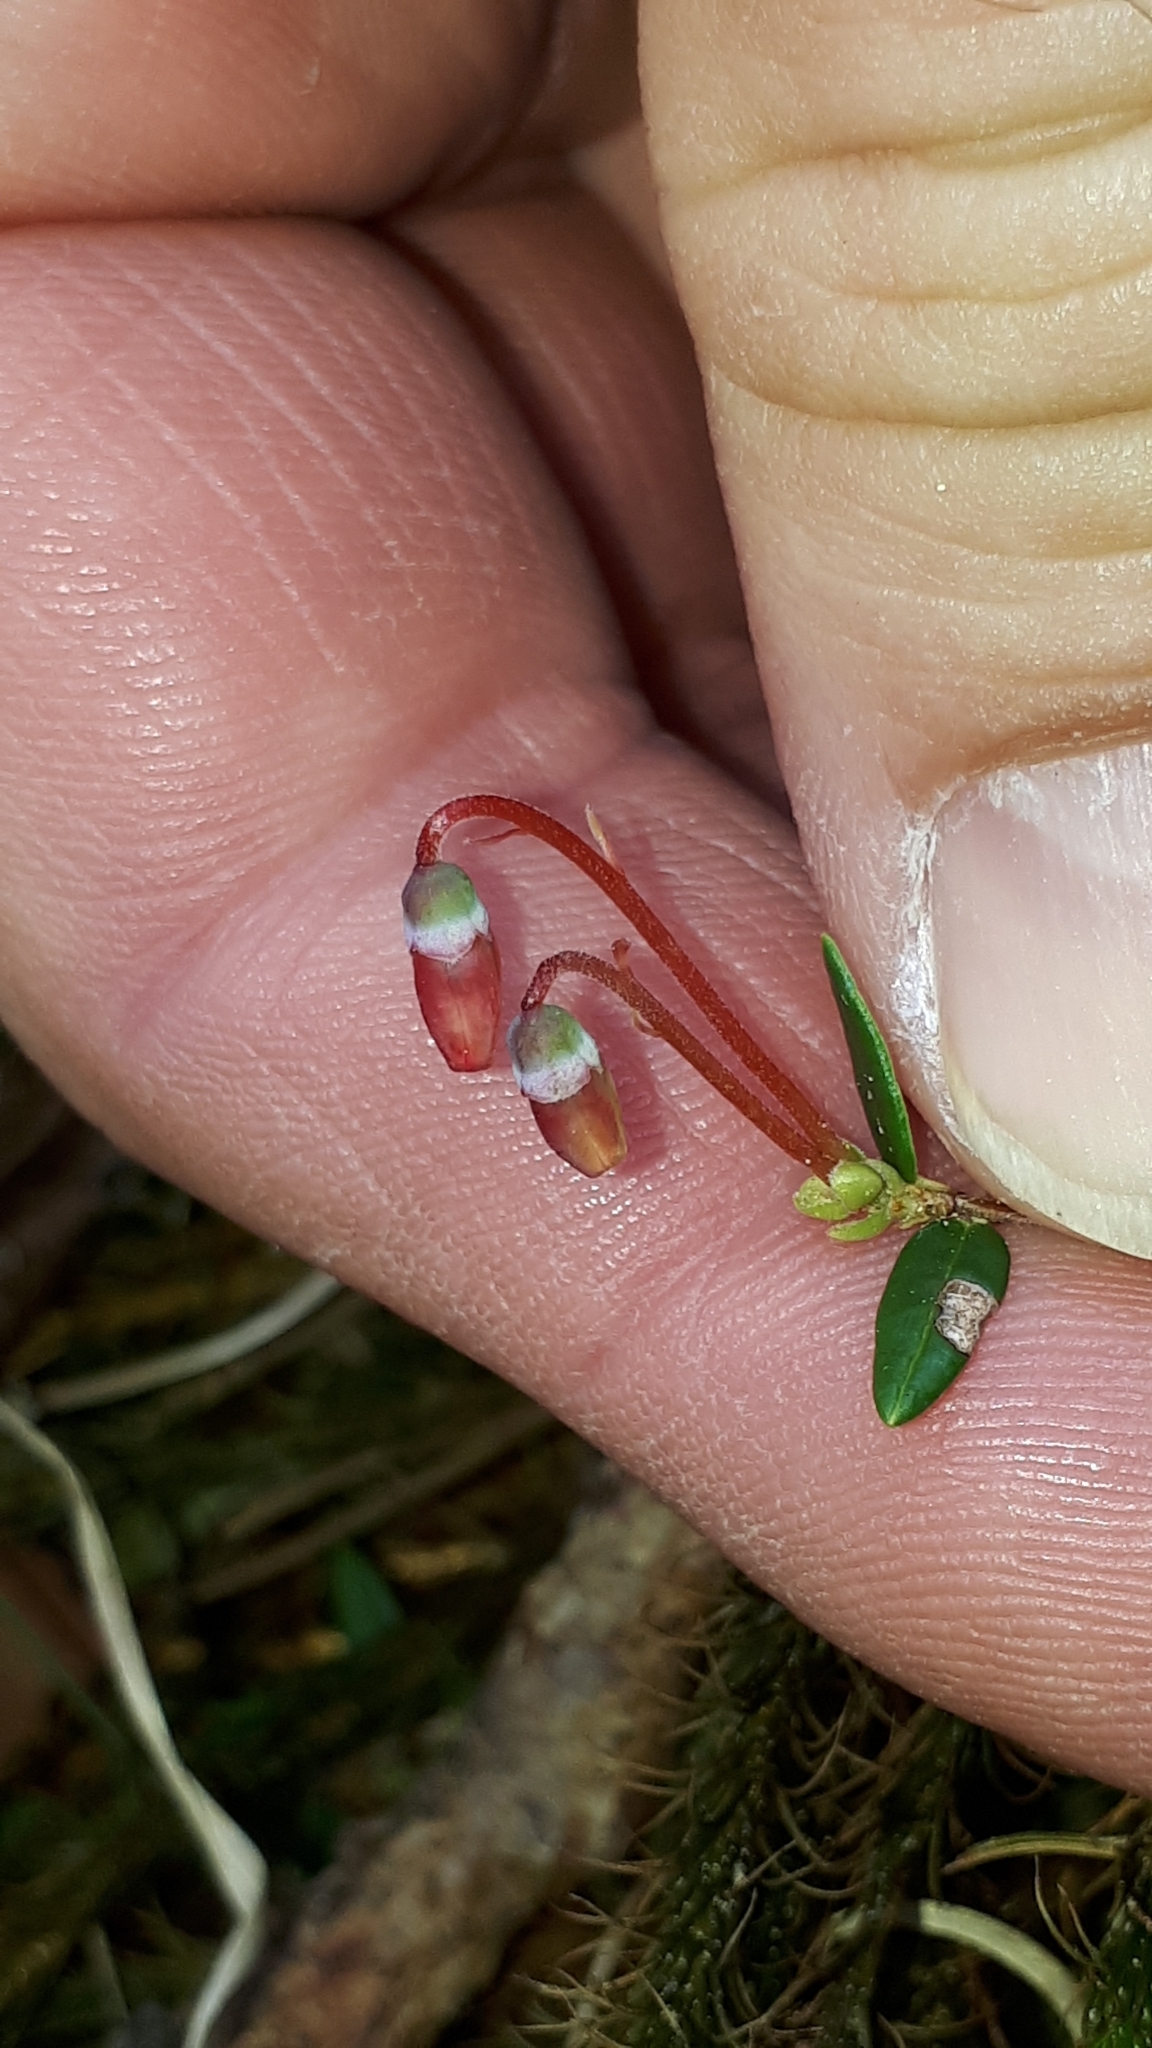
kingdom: Plantae
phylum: Tracheophyta
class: Magnoliopsida
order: Ericales
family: Ericaceae
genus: Vaccinium
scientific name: Vaccinium oxycoccos
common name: Cranberry
